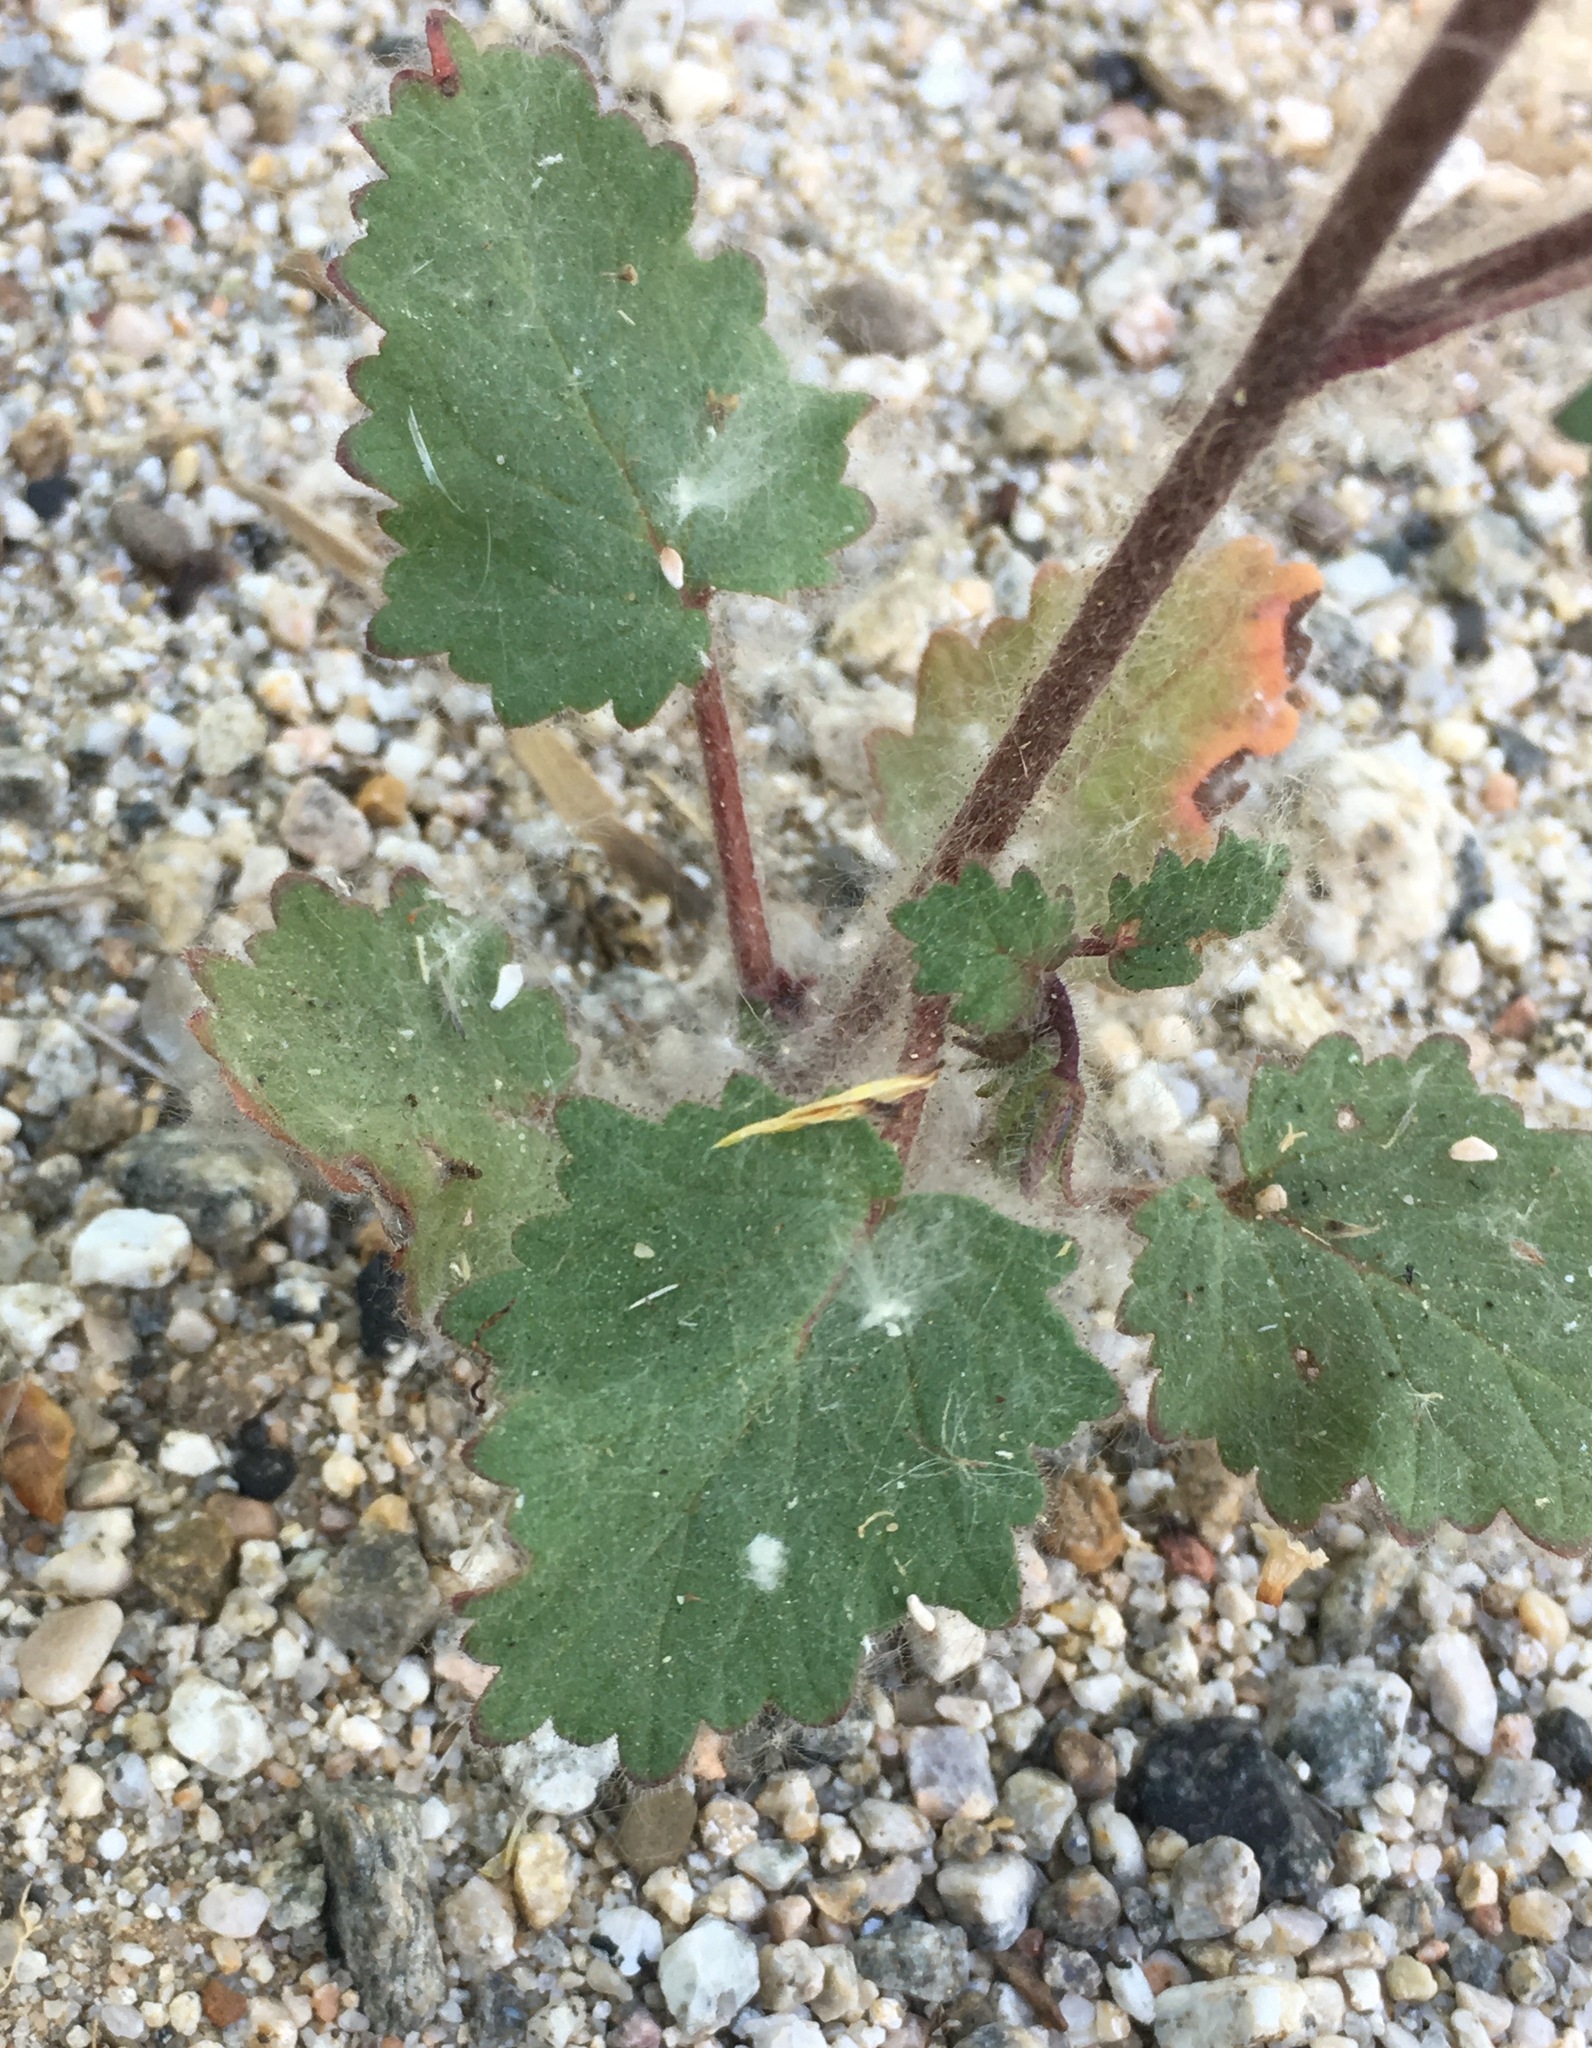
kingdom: Plantae
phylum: Tracheophyta
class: Magnoliopsida
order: Boraginales
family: Hydrophyllaceae
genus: Phacelia
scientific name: Phacelia minor
